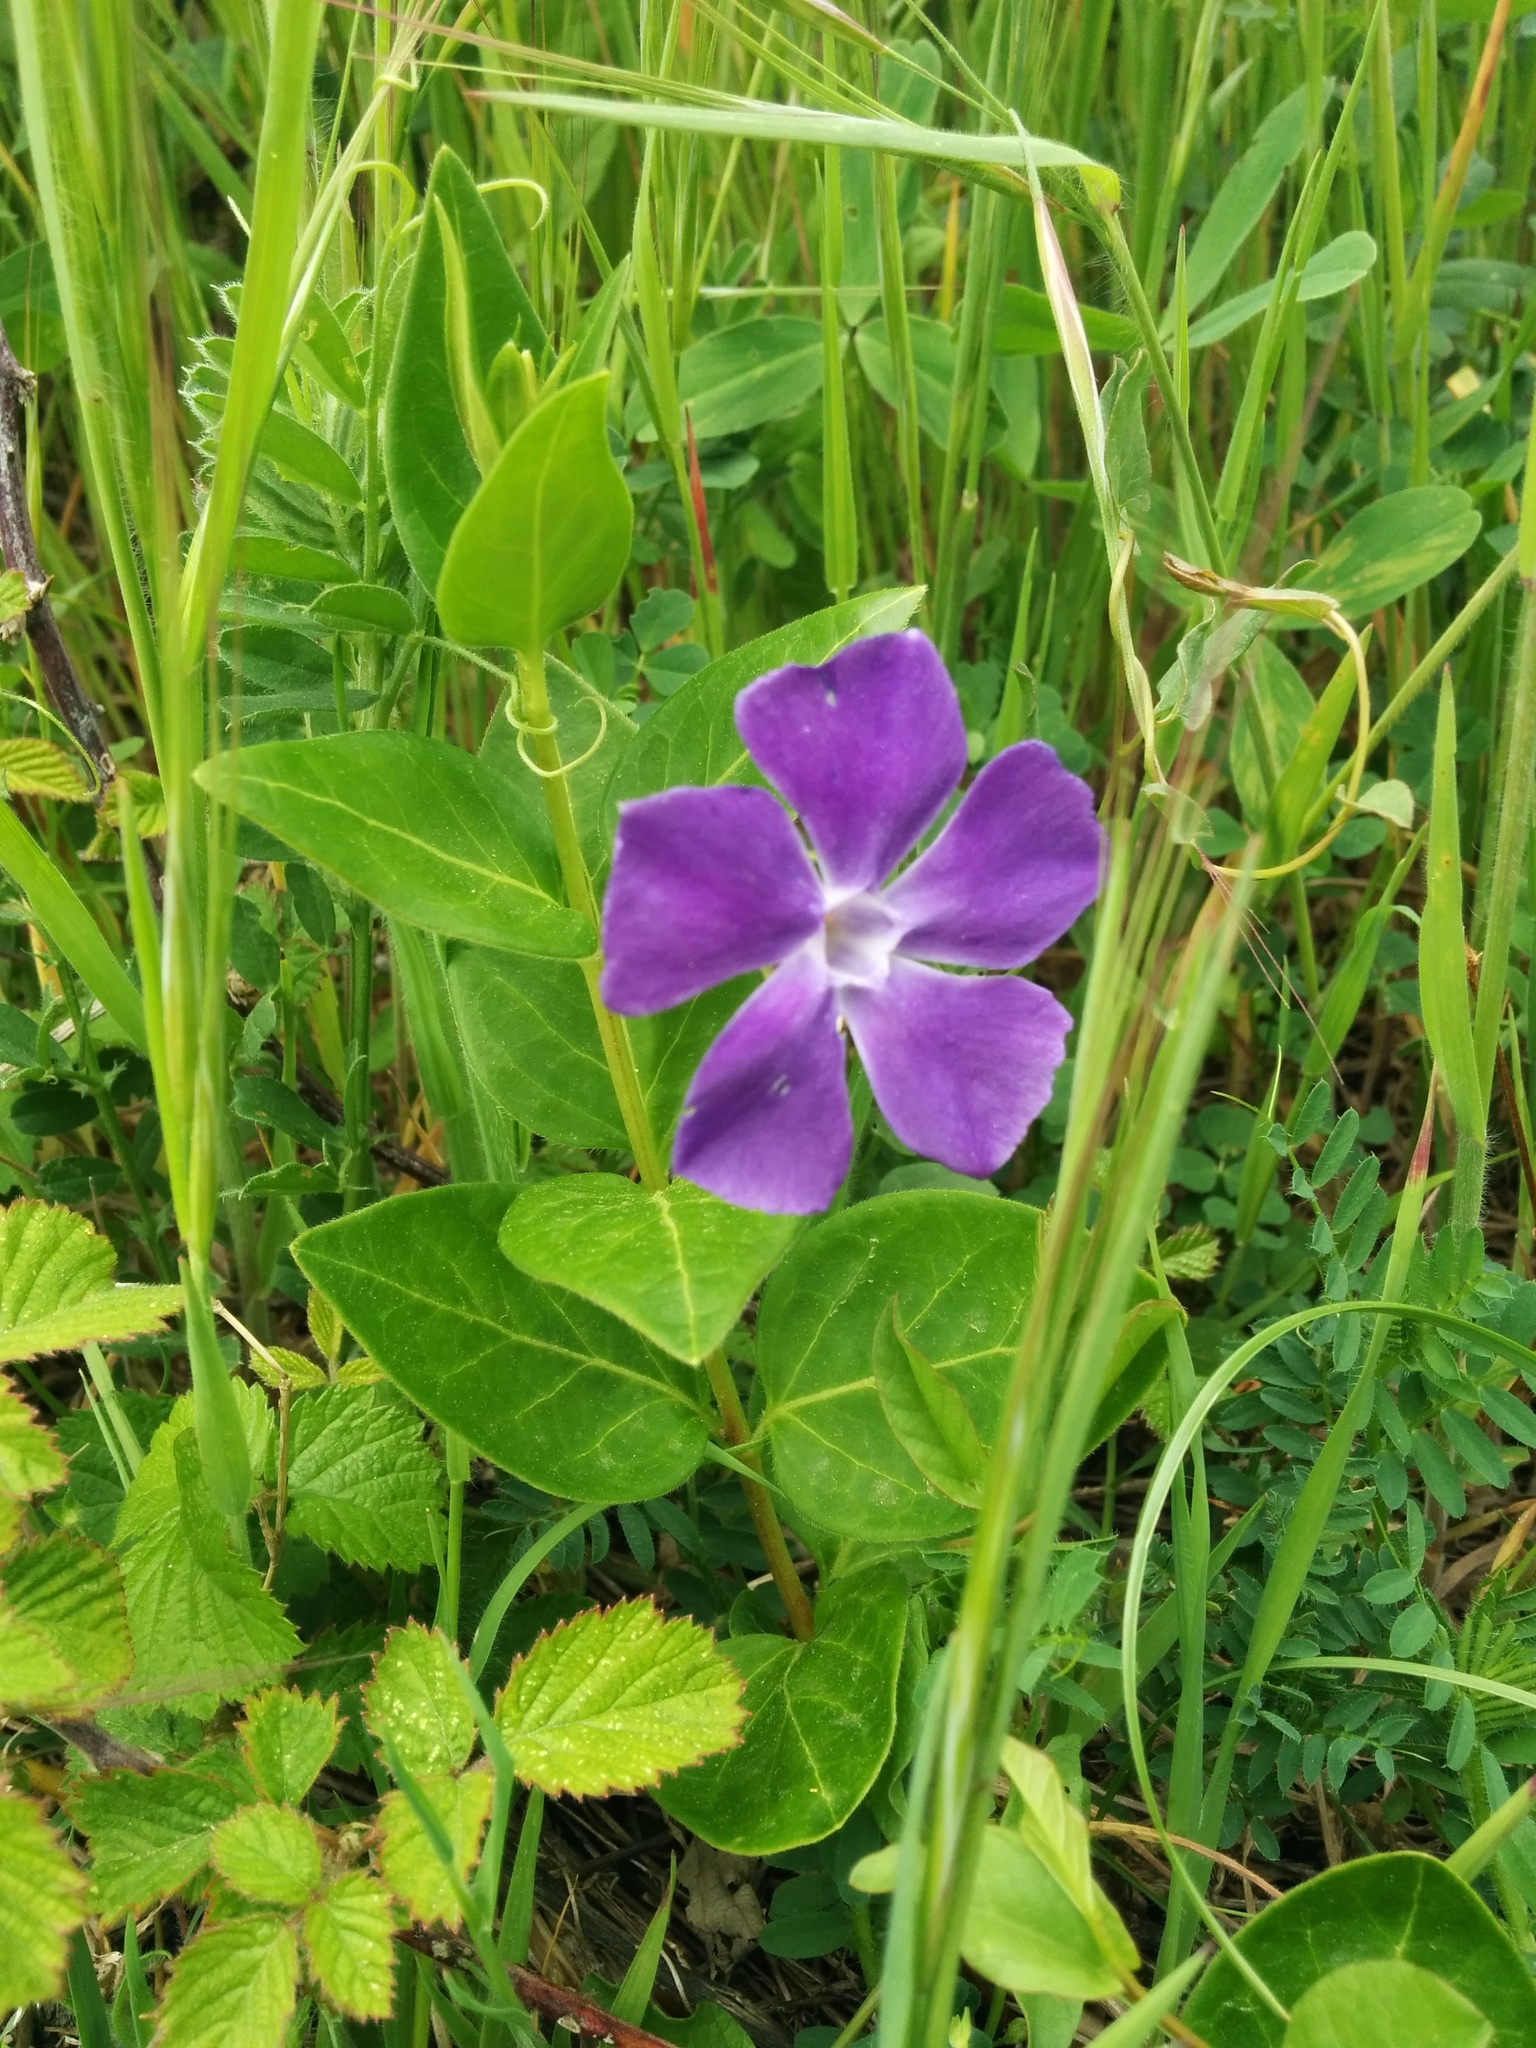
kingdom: Plantae
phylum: Tracheophyta
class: Magnoliopsida
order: Gentianales
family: Apocynaceae
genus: Vinca
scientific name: Vinca major
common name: Greater periwinkle
